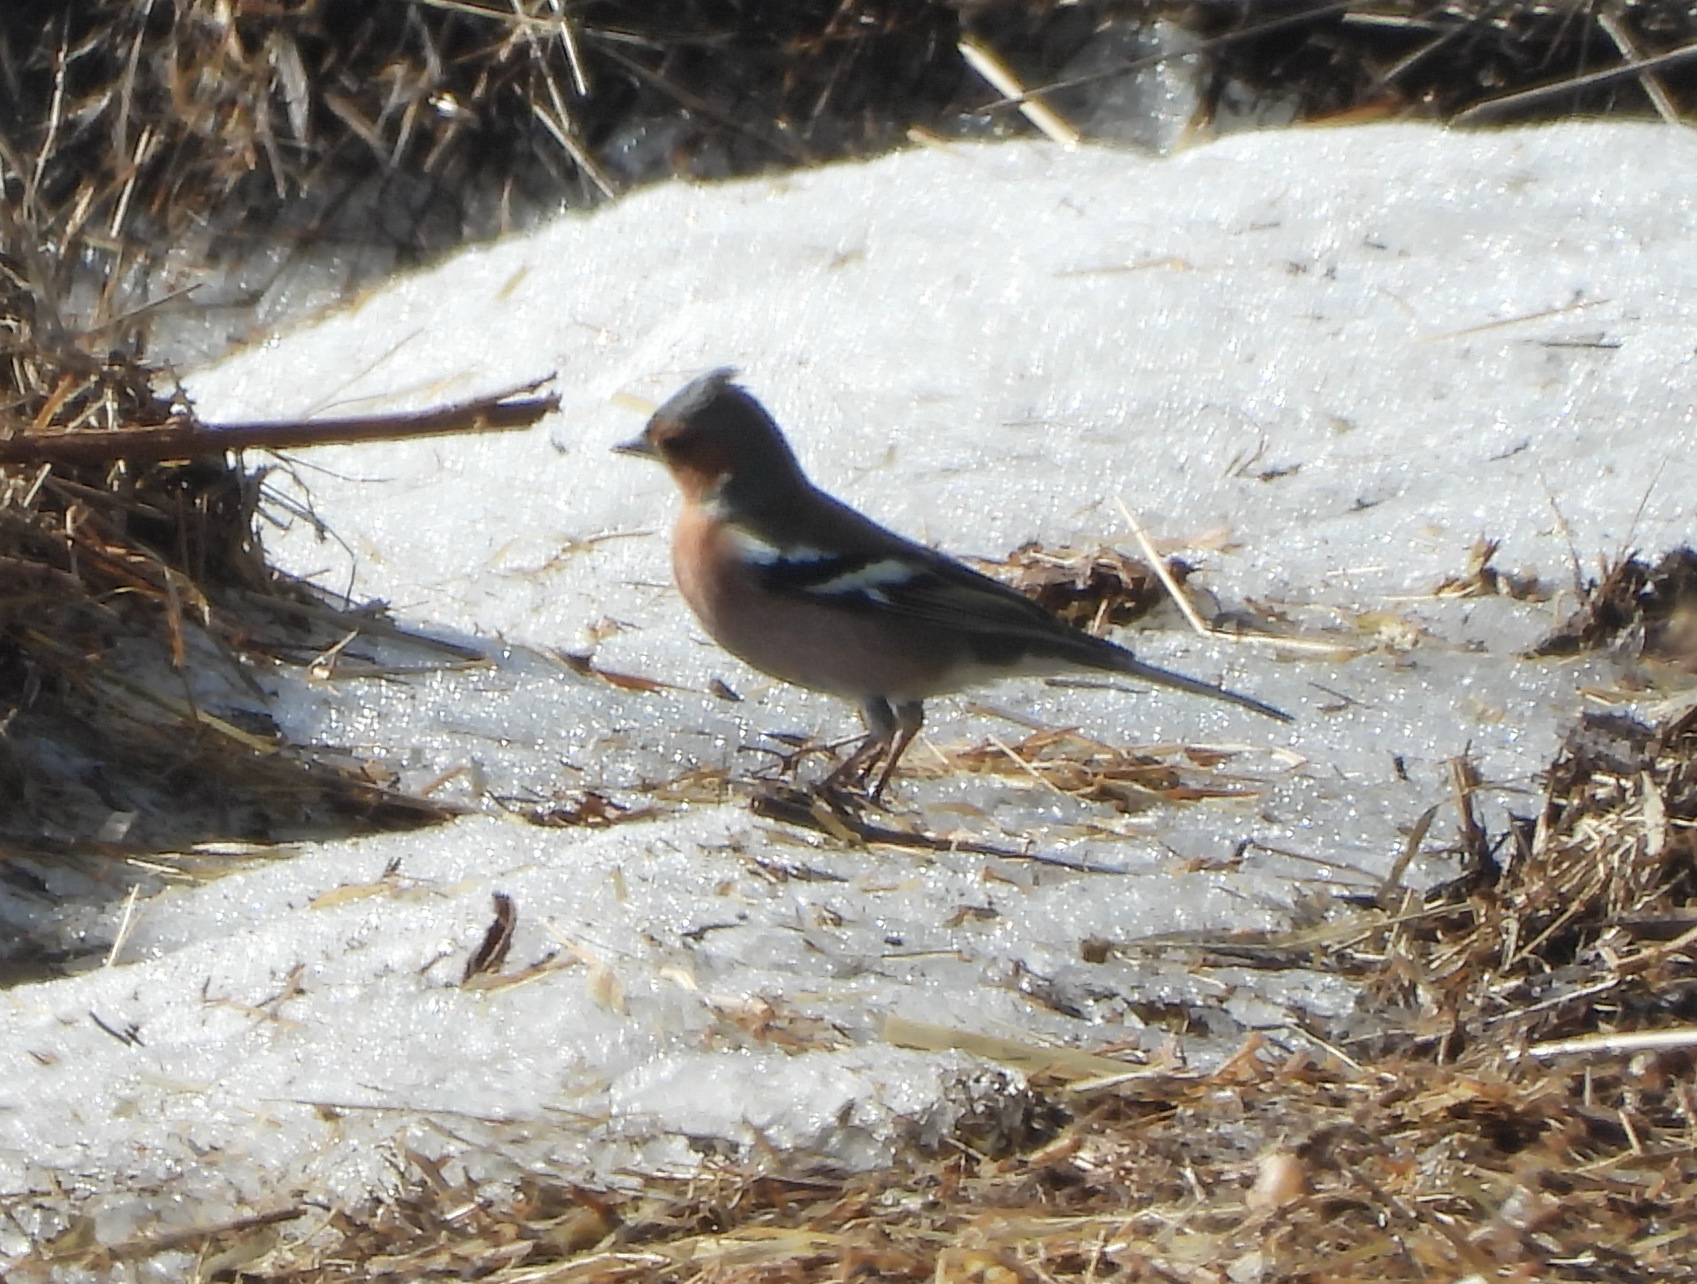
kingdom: Animalia
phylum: Chordata
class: Aves
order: Passeriformes
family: Fringillidae
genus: Fringilla
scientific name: Fringilla coelebs
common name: Common chaffinch
